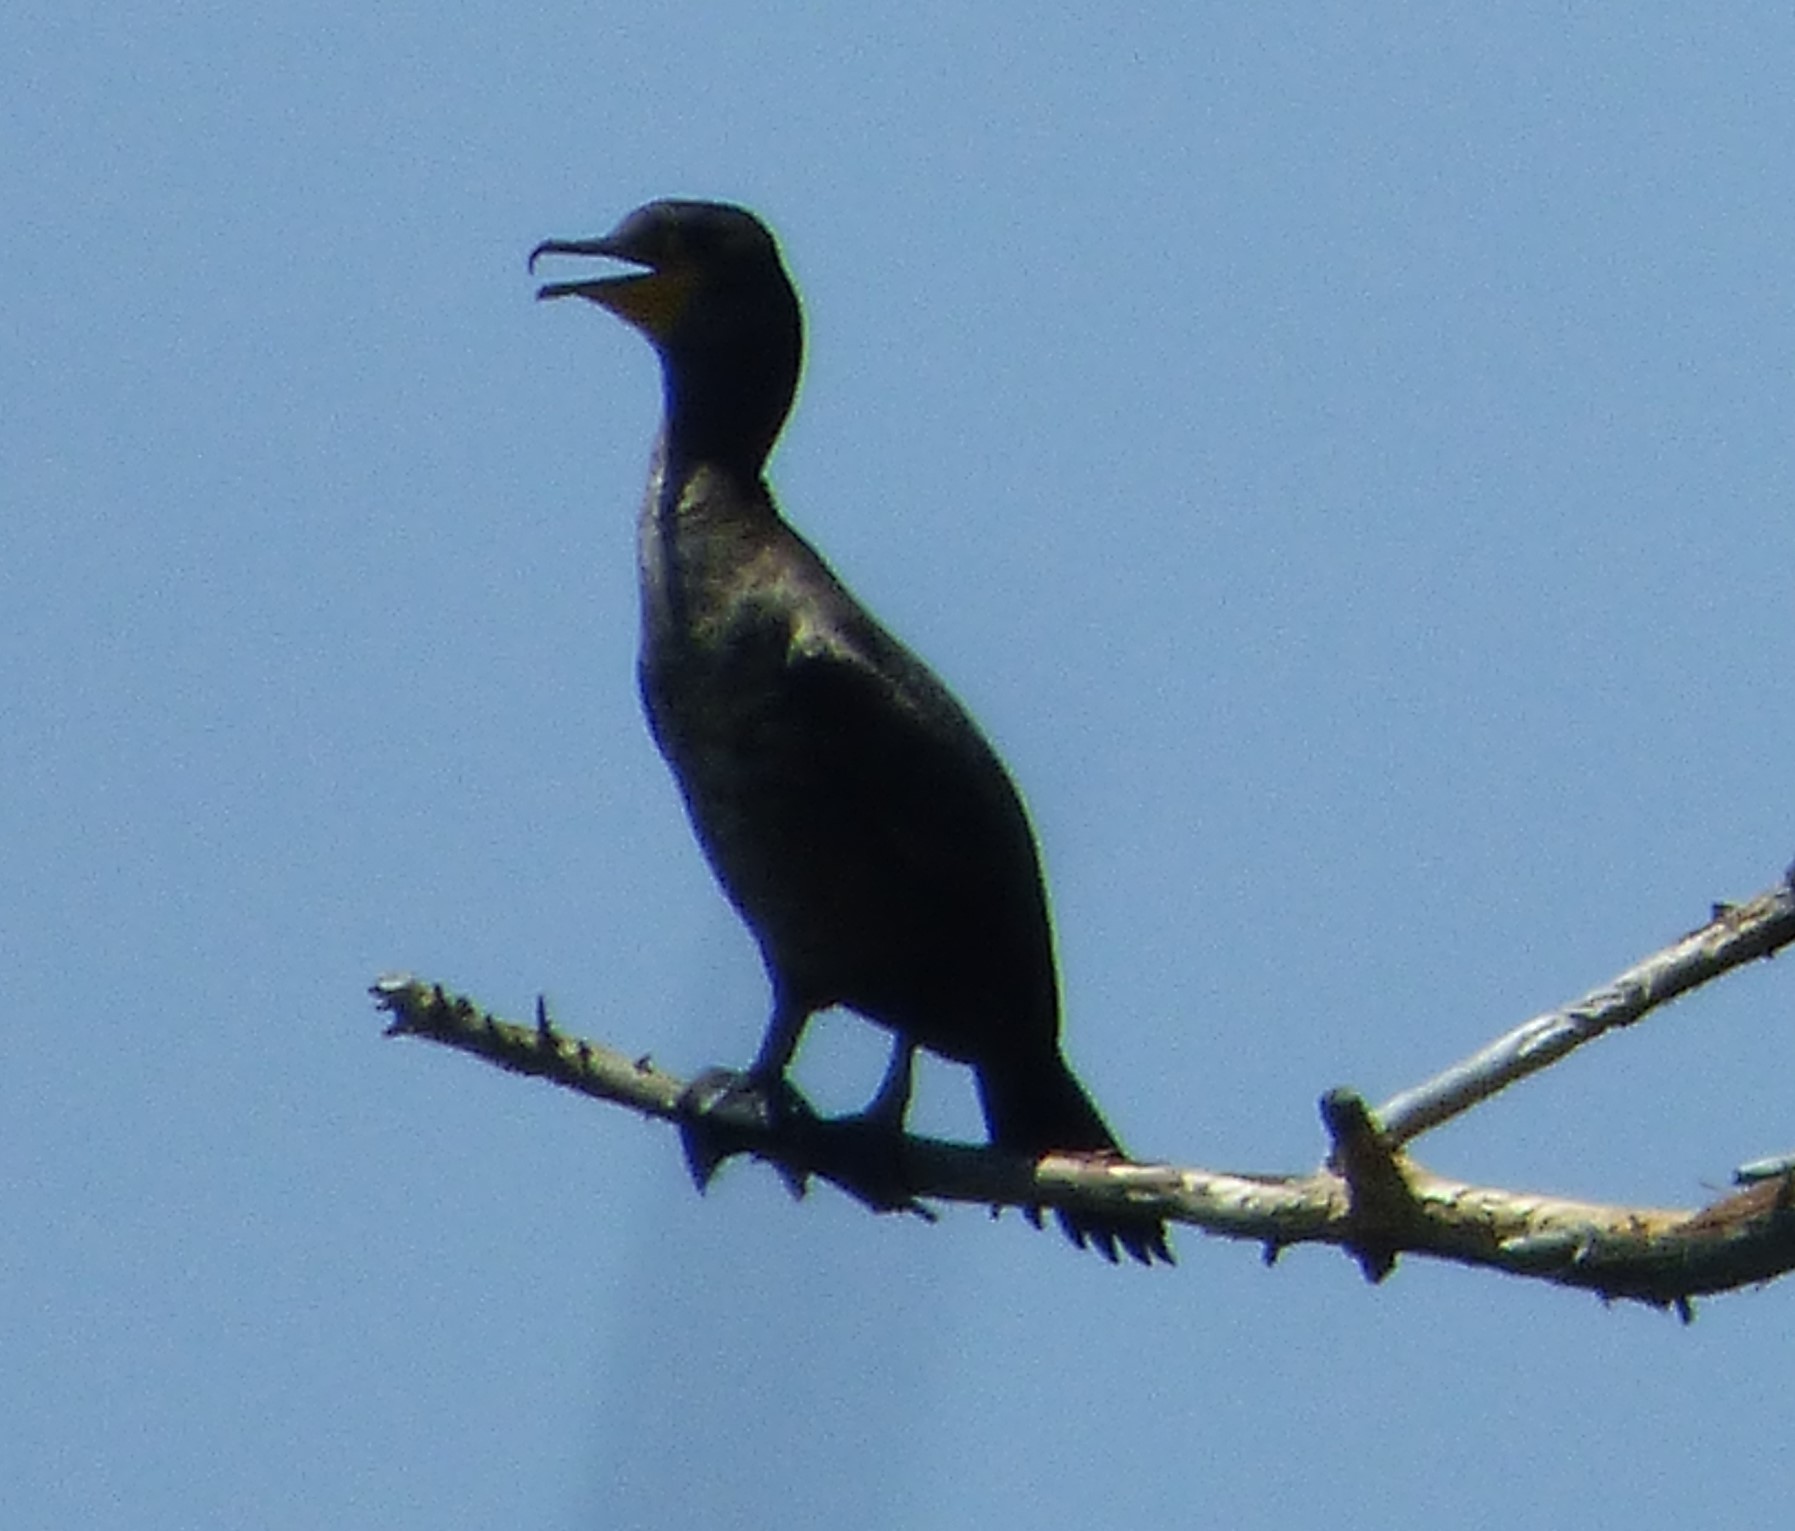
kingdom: Animalia
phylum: Chordata
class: Aves
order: Suliformes
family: Phalacrocoracidae
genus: Phalacrocorax
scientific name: Phalacrocorax auritus
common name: Double-crested cormorant
